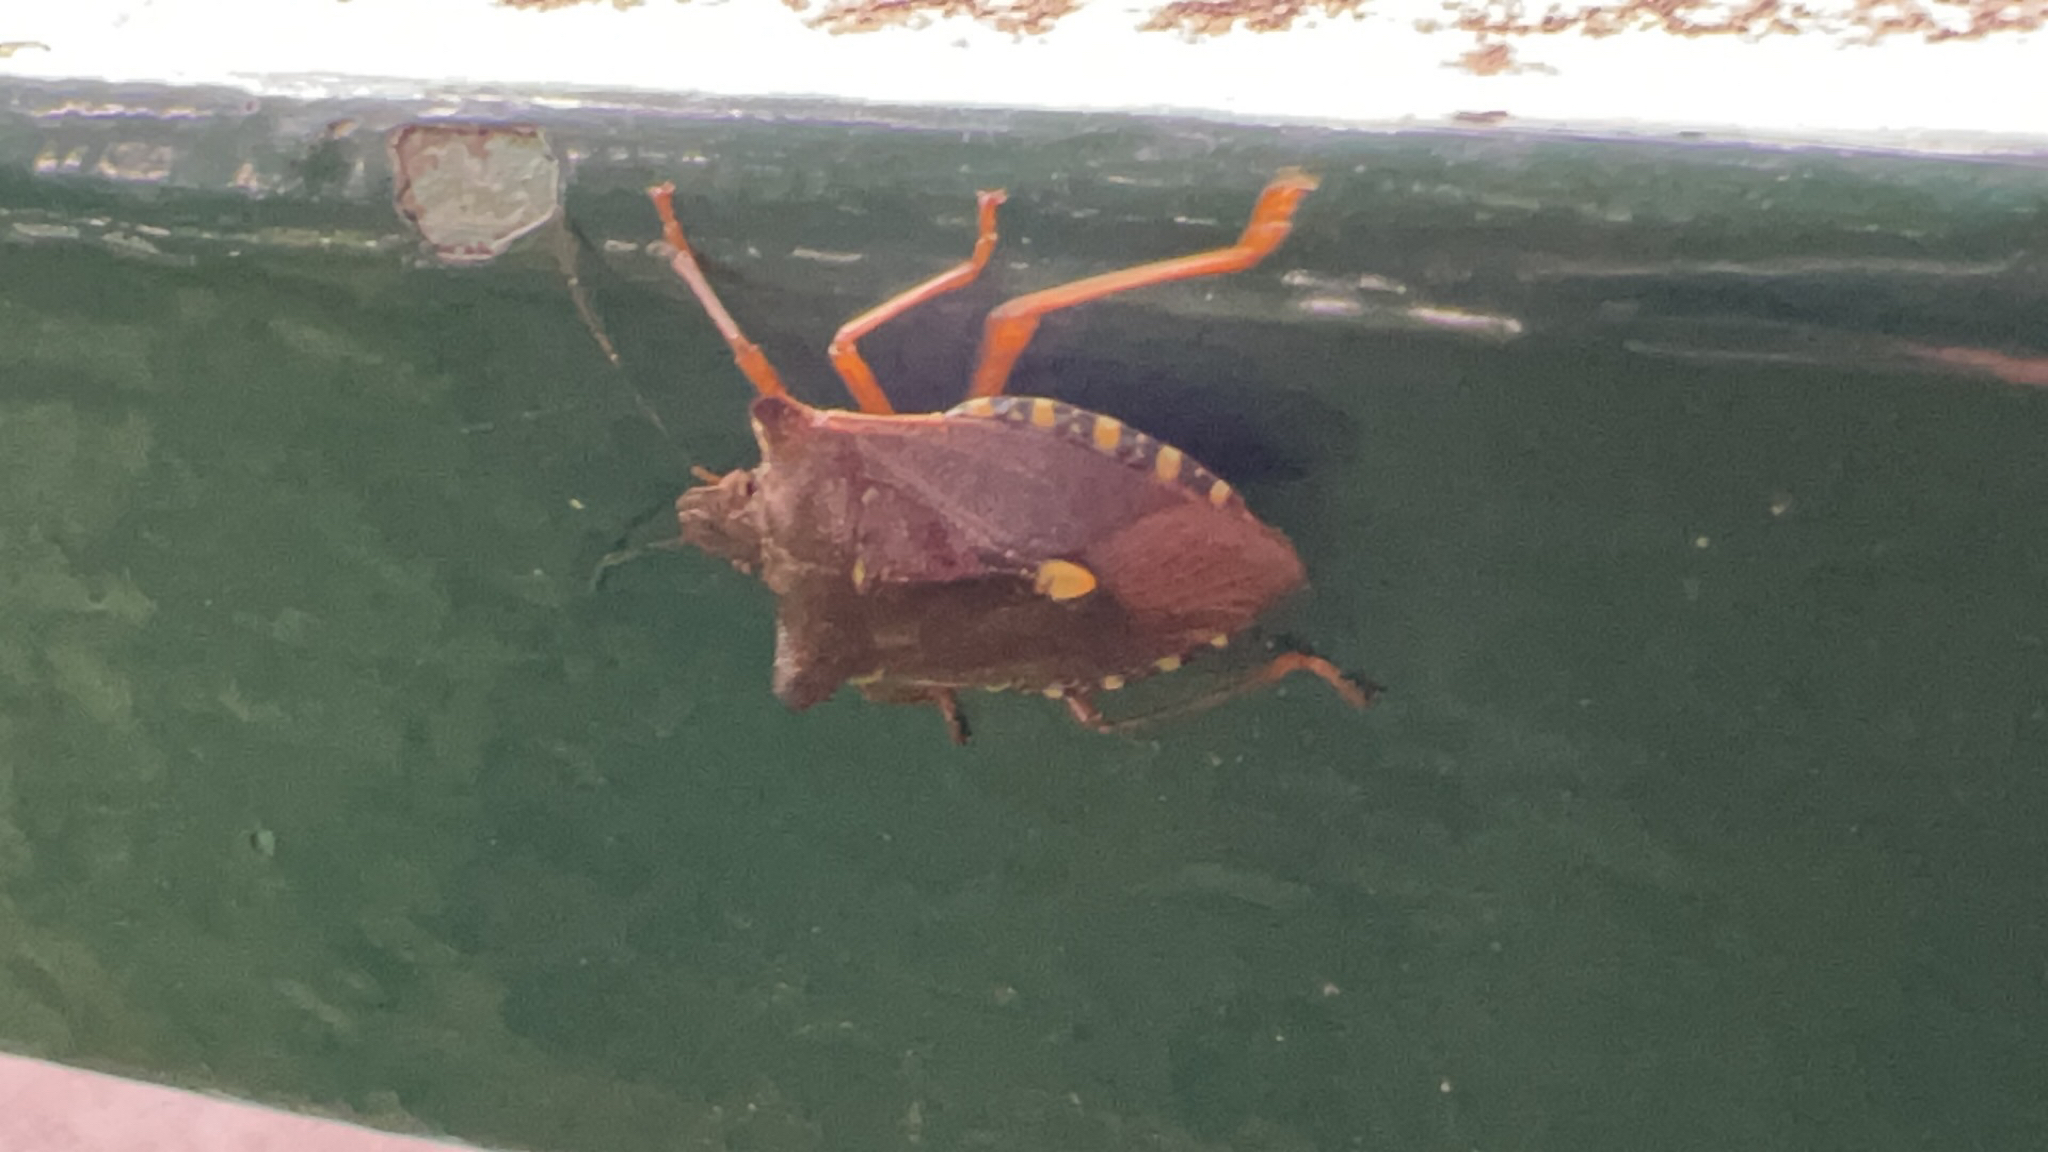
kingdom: Animalia
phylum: Arthropoda
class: Insecta
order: Hemiptera
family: Pentatomidae
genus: Pentatoma
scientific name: Pentatoma rufipes
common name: Forest bug
